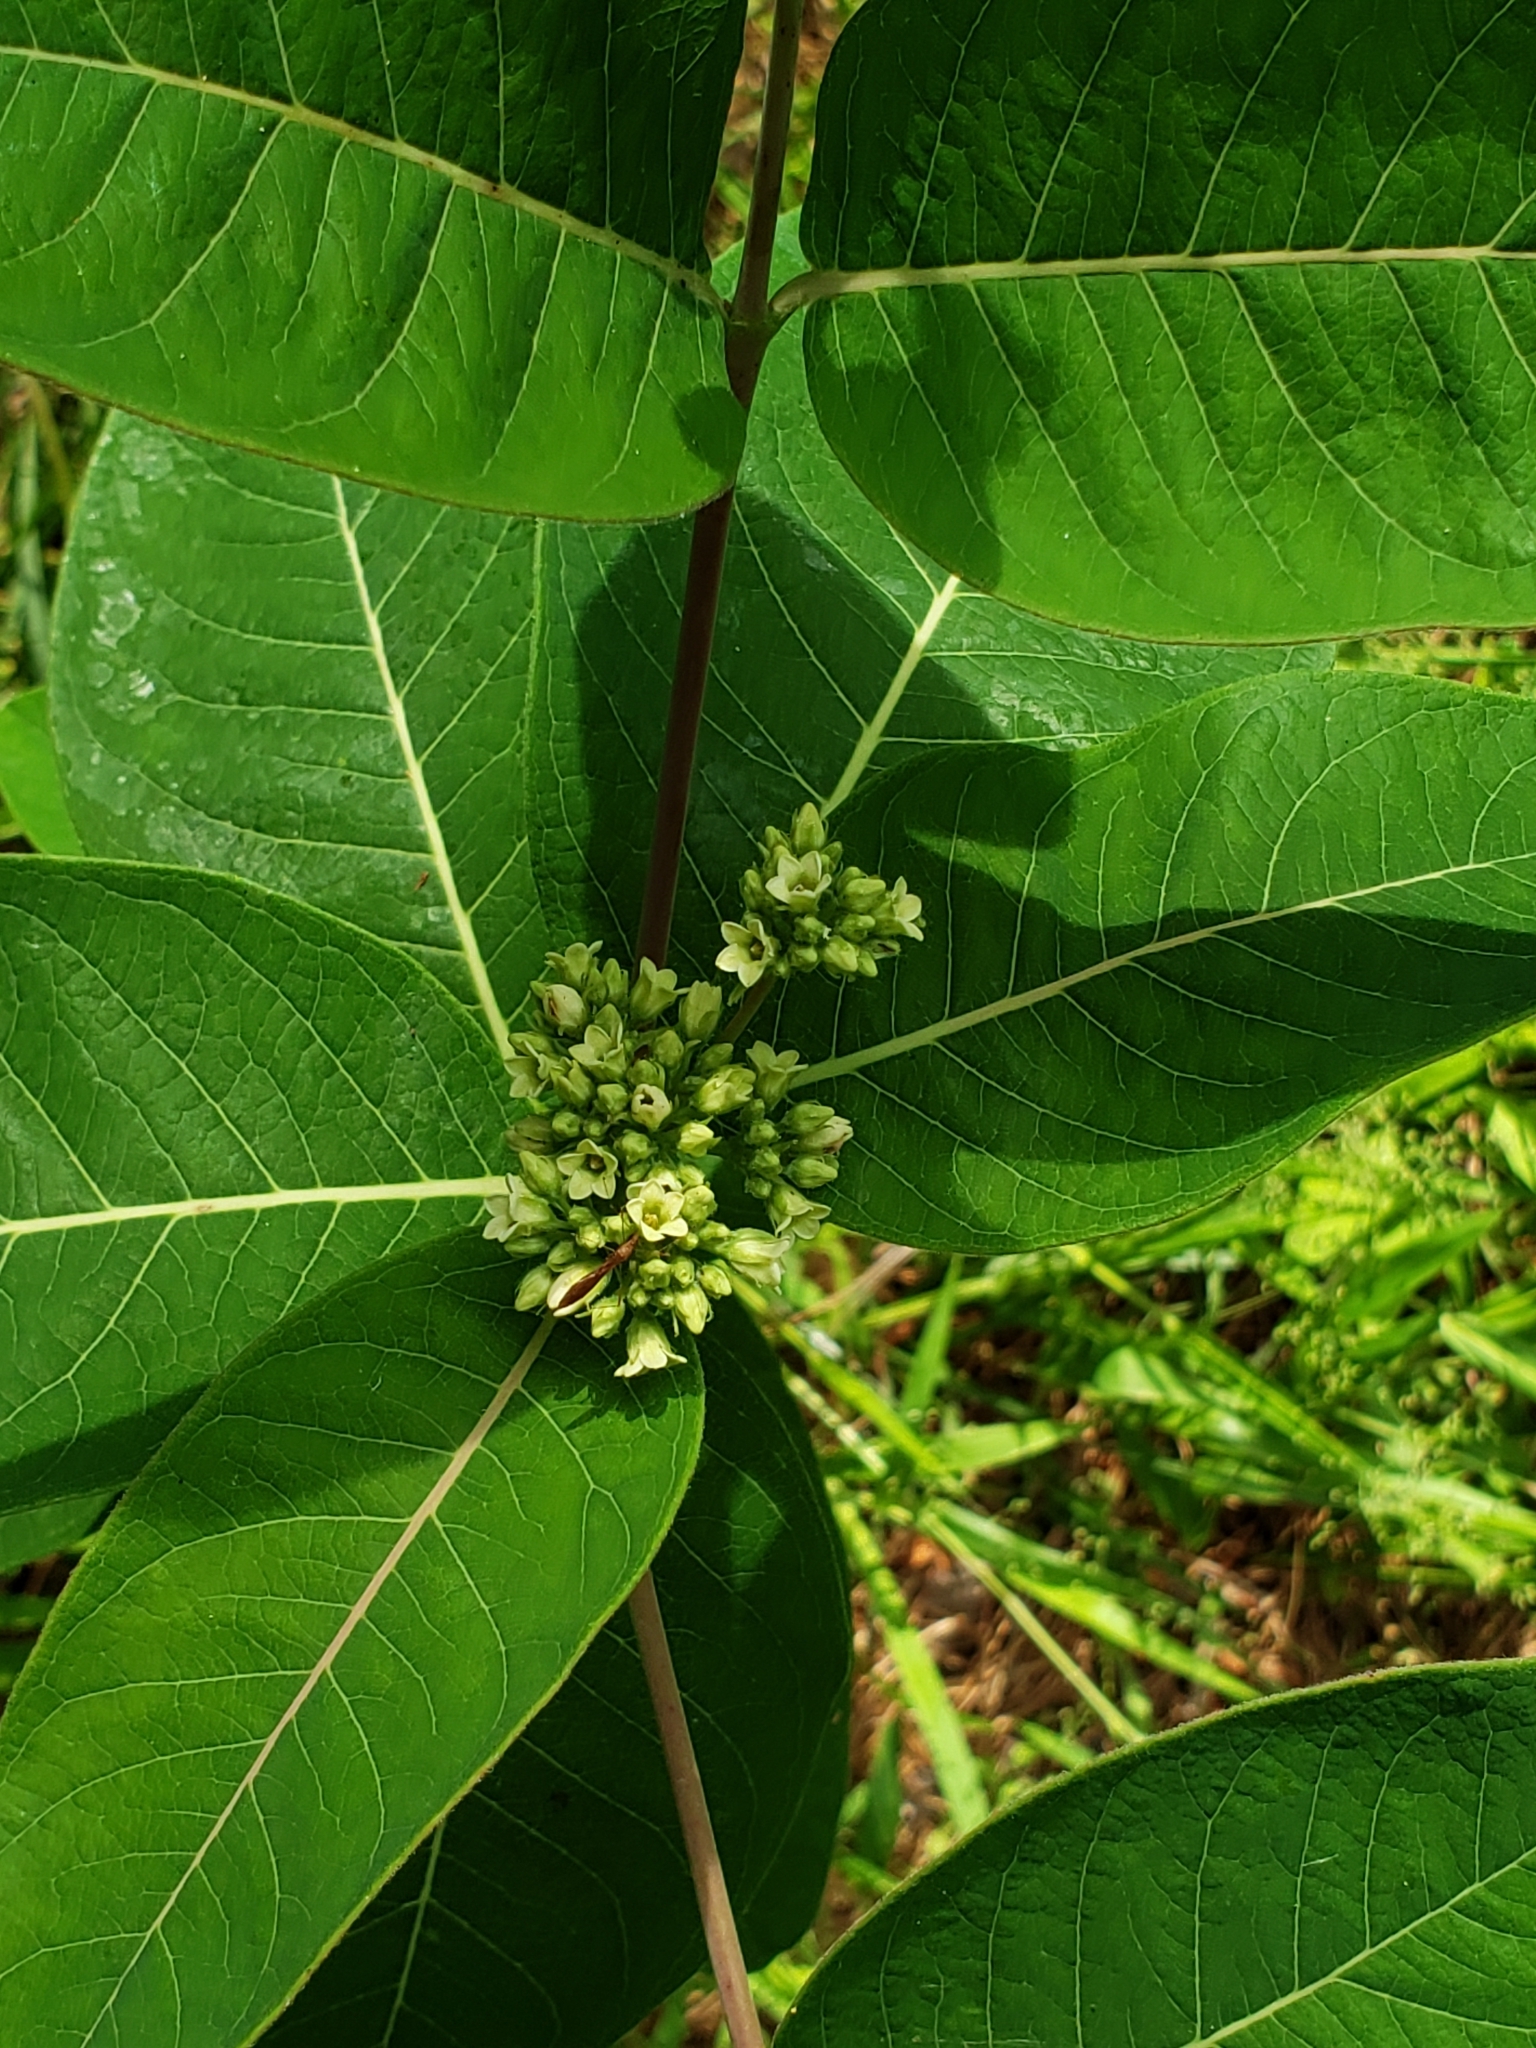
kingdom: Plantae
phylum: Tracheophyta
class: Magnoliopsida
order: Gentianales
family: Apocynaceae
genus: Apocynum
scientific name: Apocynum cannabinum
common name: Hemp dogbane
